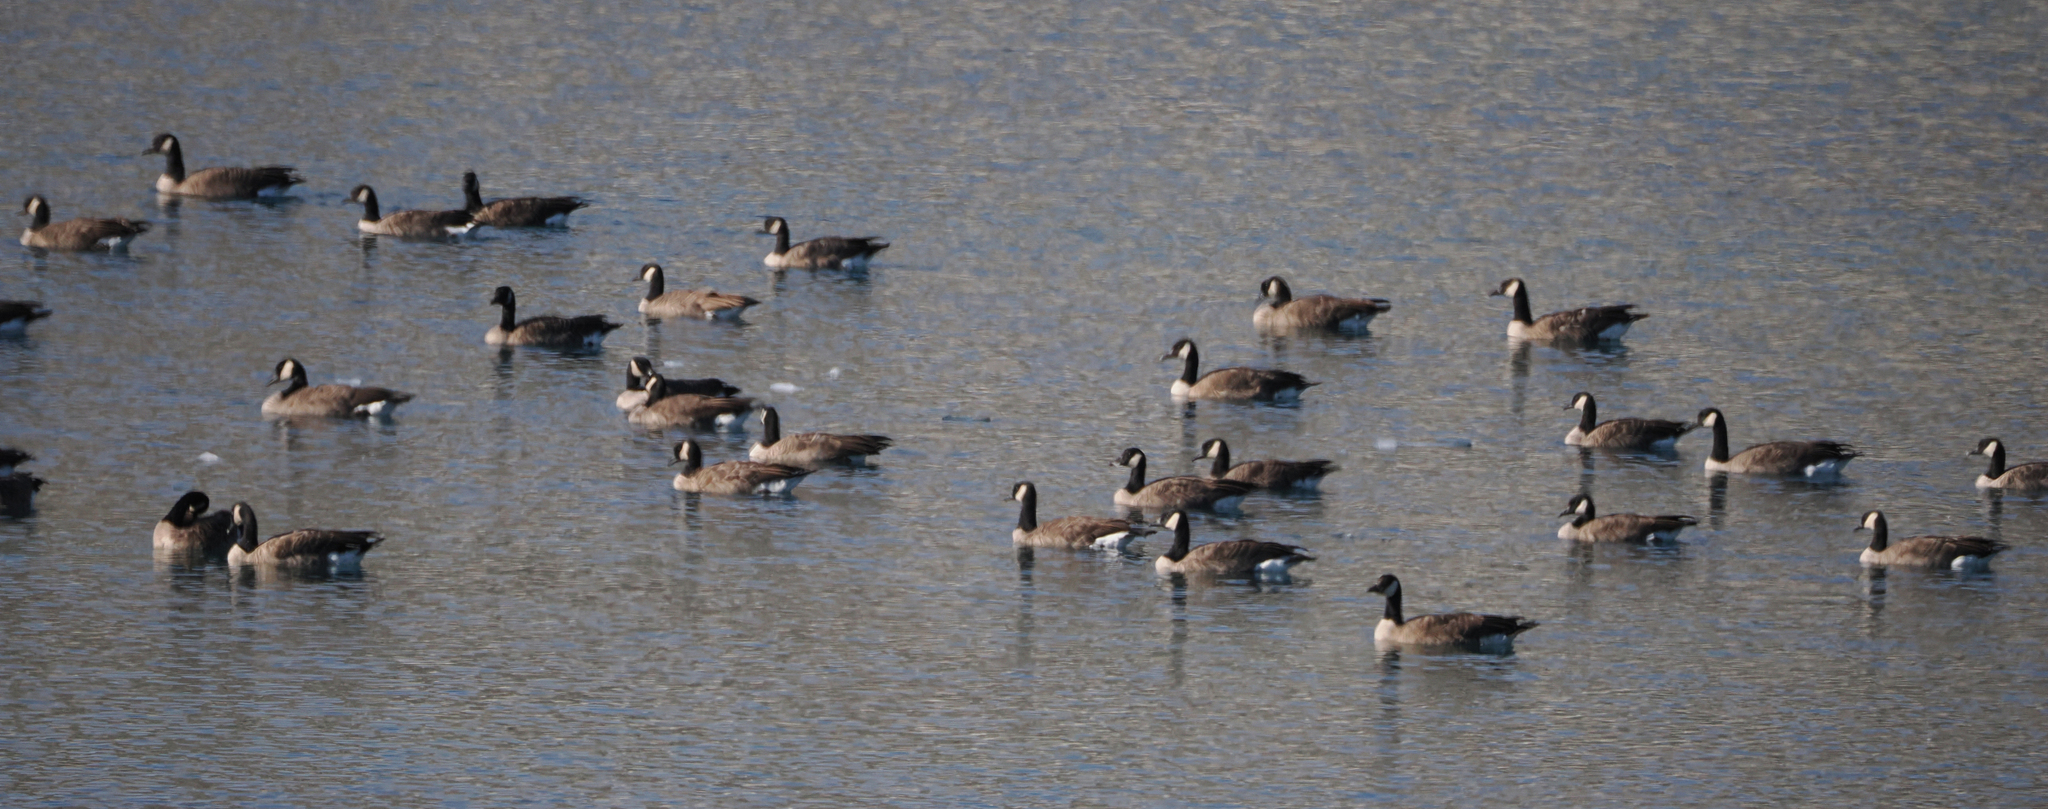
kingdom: Animalia
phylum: Chordata
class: Aves
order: Anseriformes
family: Anatidae
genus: Branta
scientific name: Branta canadensis
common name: Canada goose
